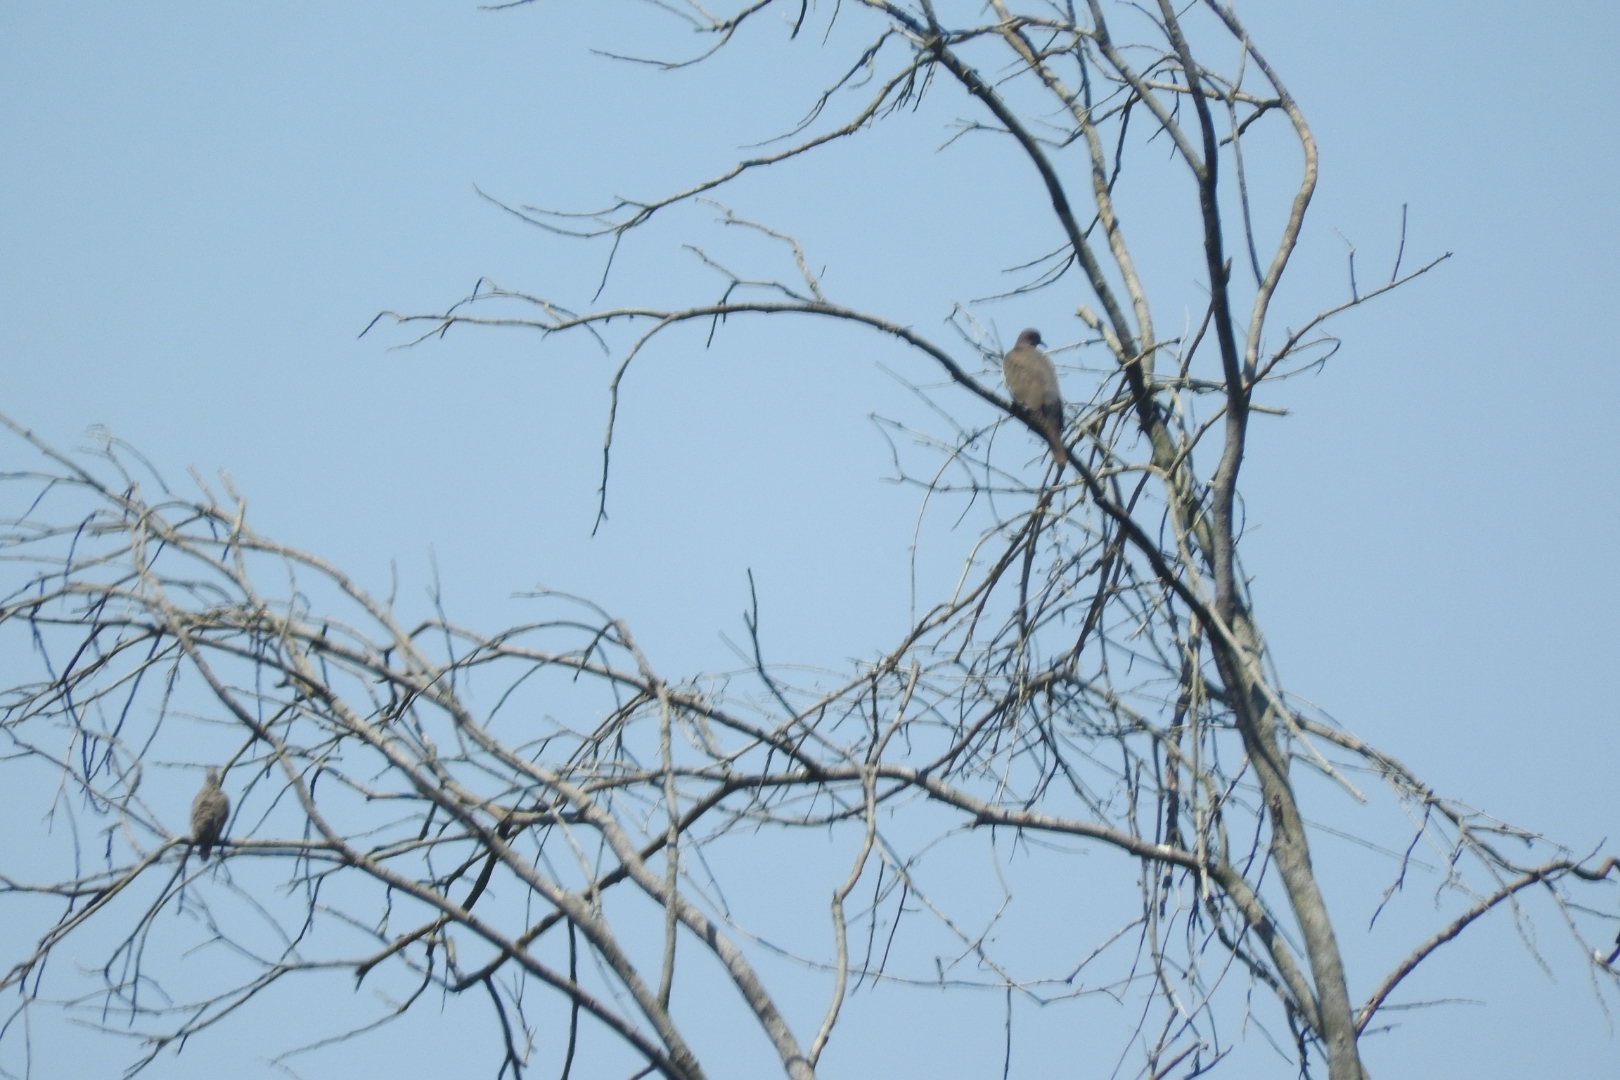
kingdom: Animalia
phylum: Chordata
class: Aves
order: Columbiformes
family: Columbidae
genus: Zenaida
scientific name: Zenaida asiatica
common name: White-winged dove
